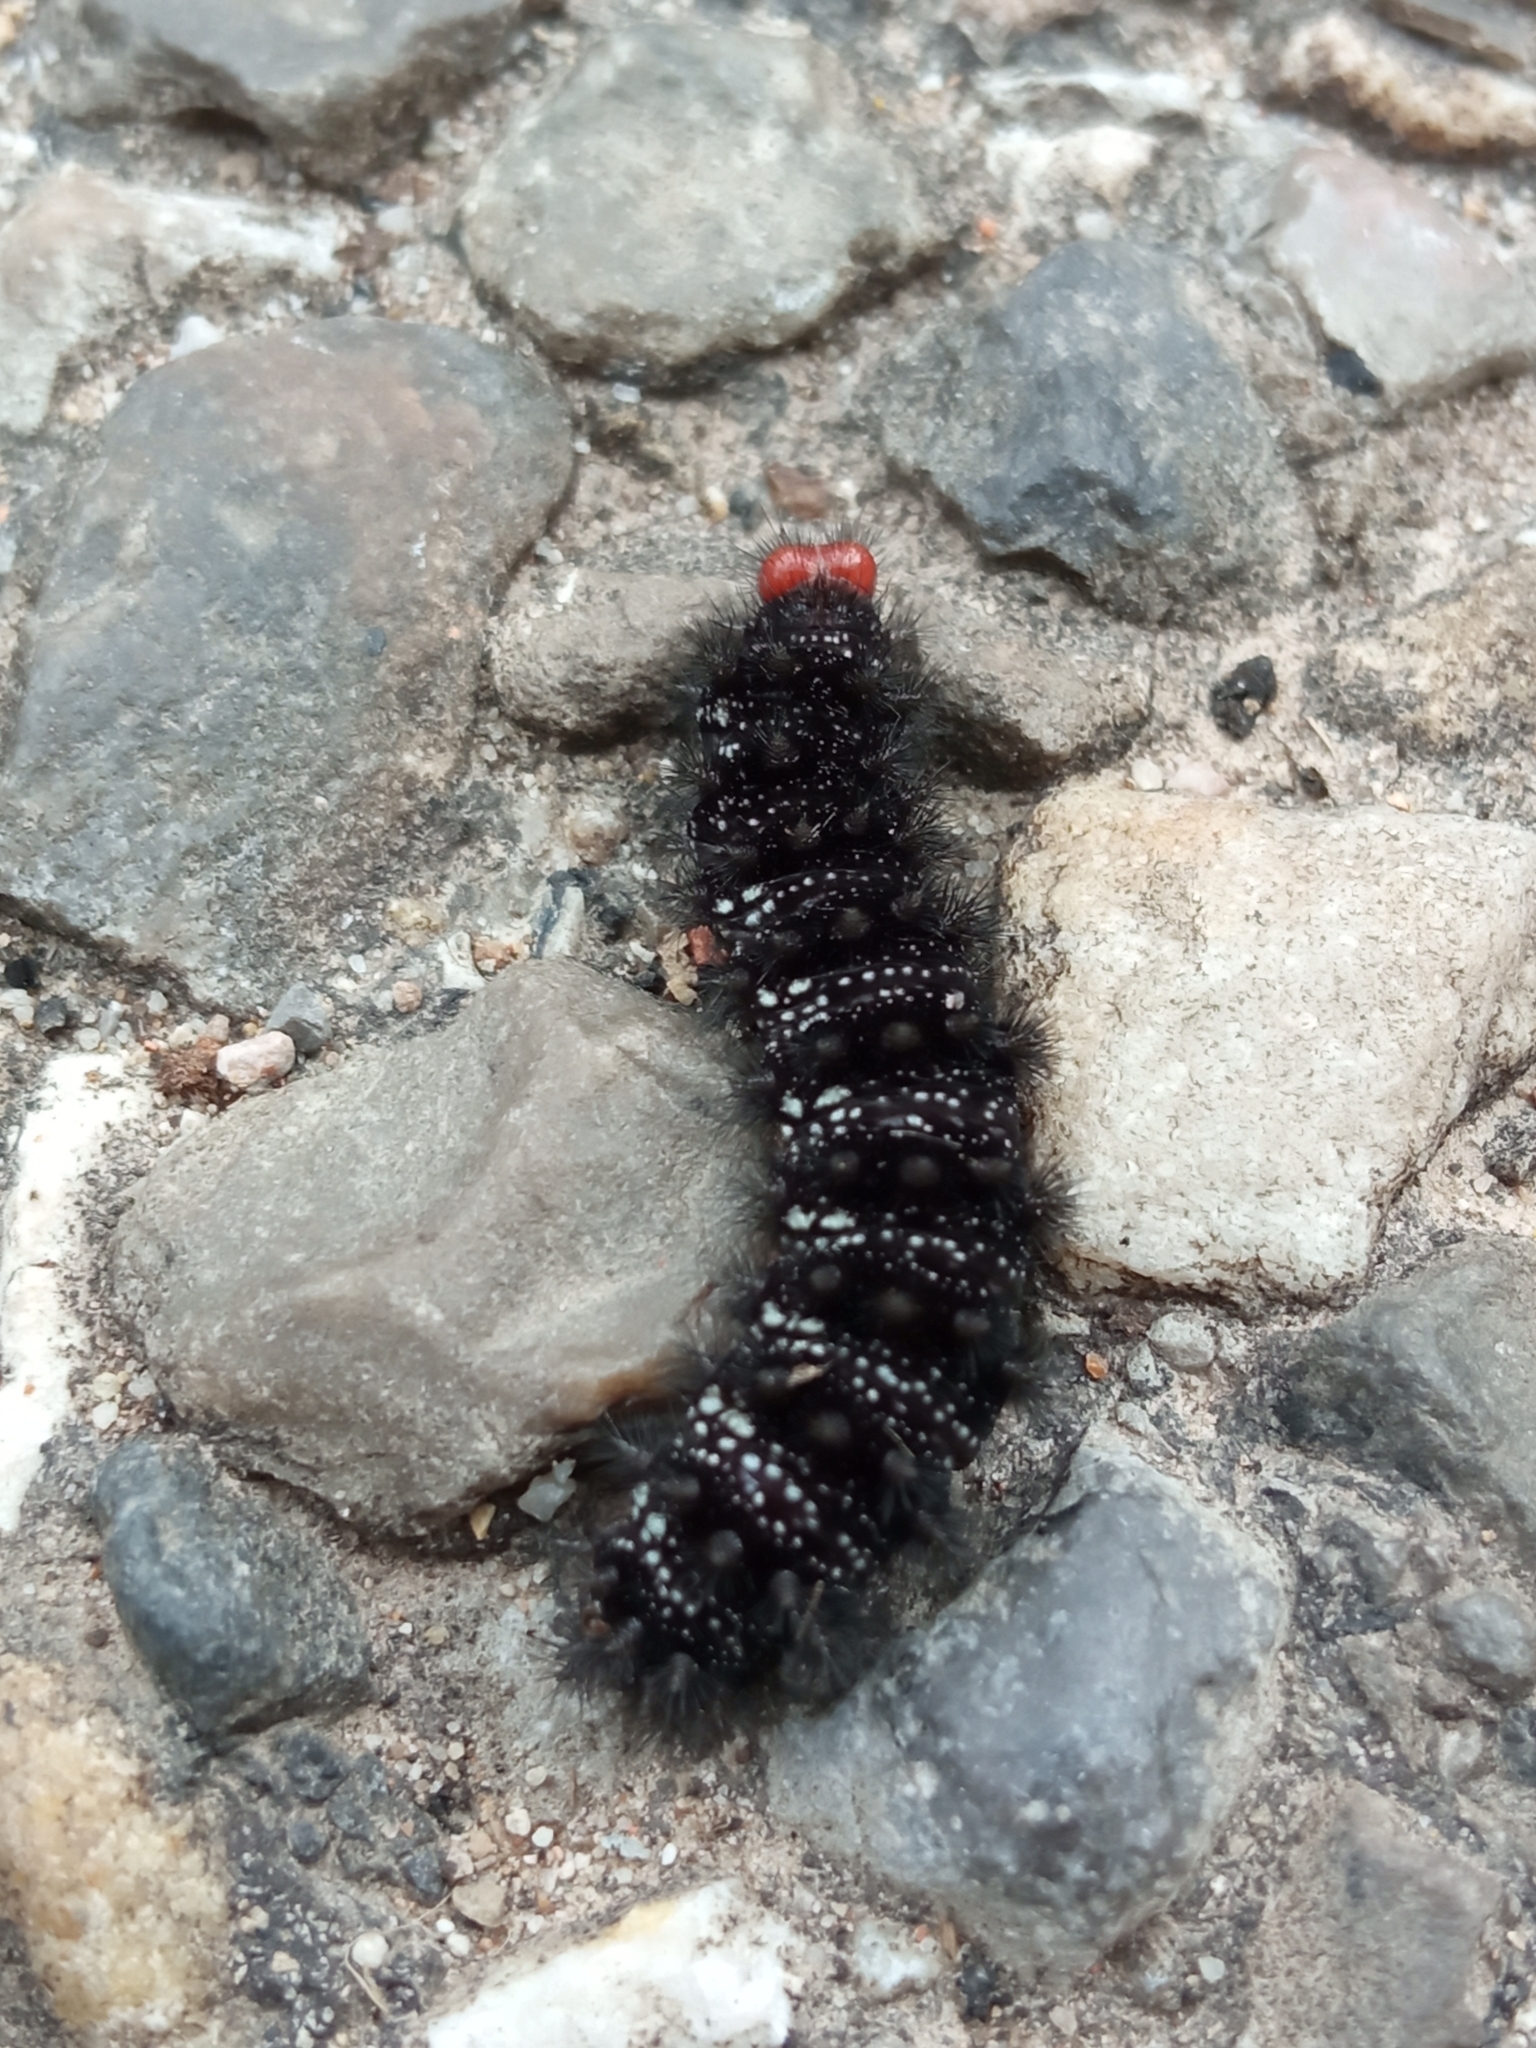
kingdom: Animalia
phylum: Arthropoda
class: Insecta
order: Lepidoptera
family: Nymphalidae
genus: Melitaea
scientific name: Melitaea cinxia
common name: Glanville fritillary
